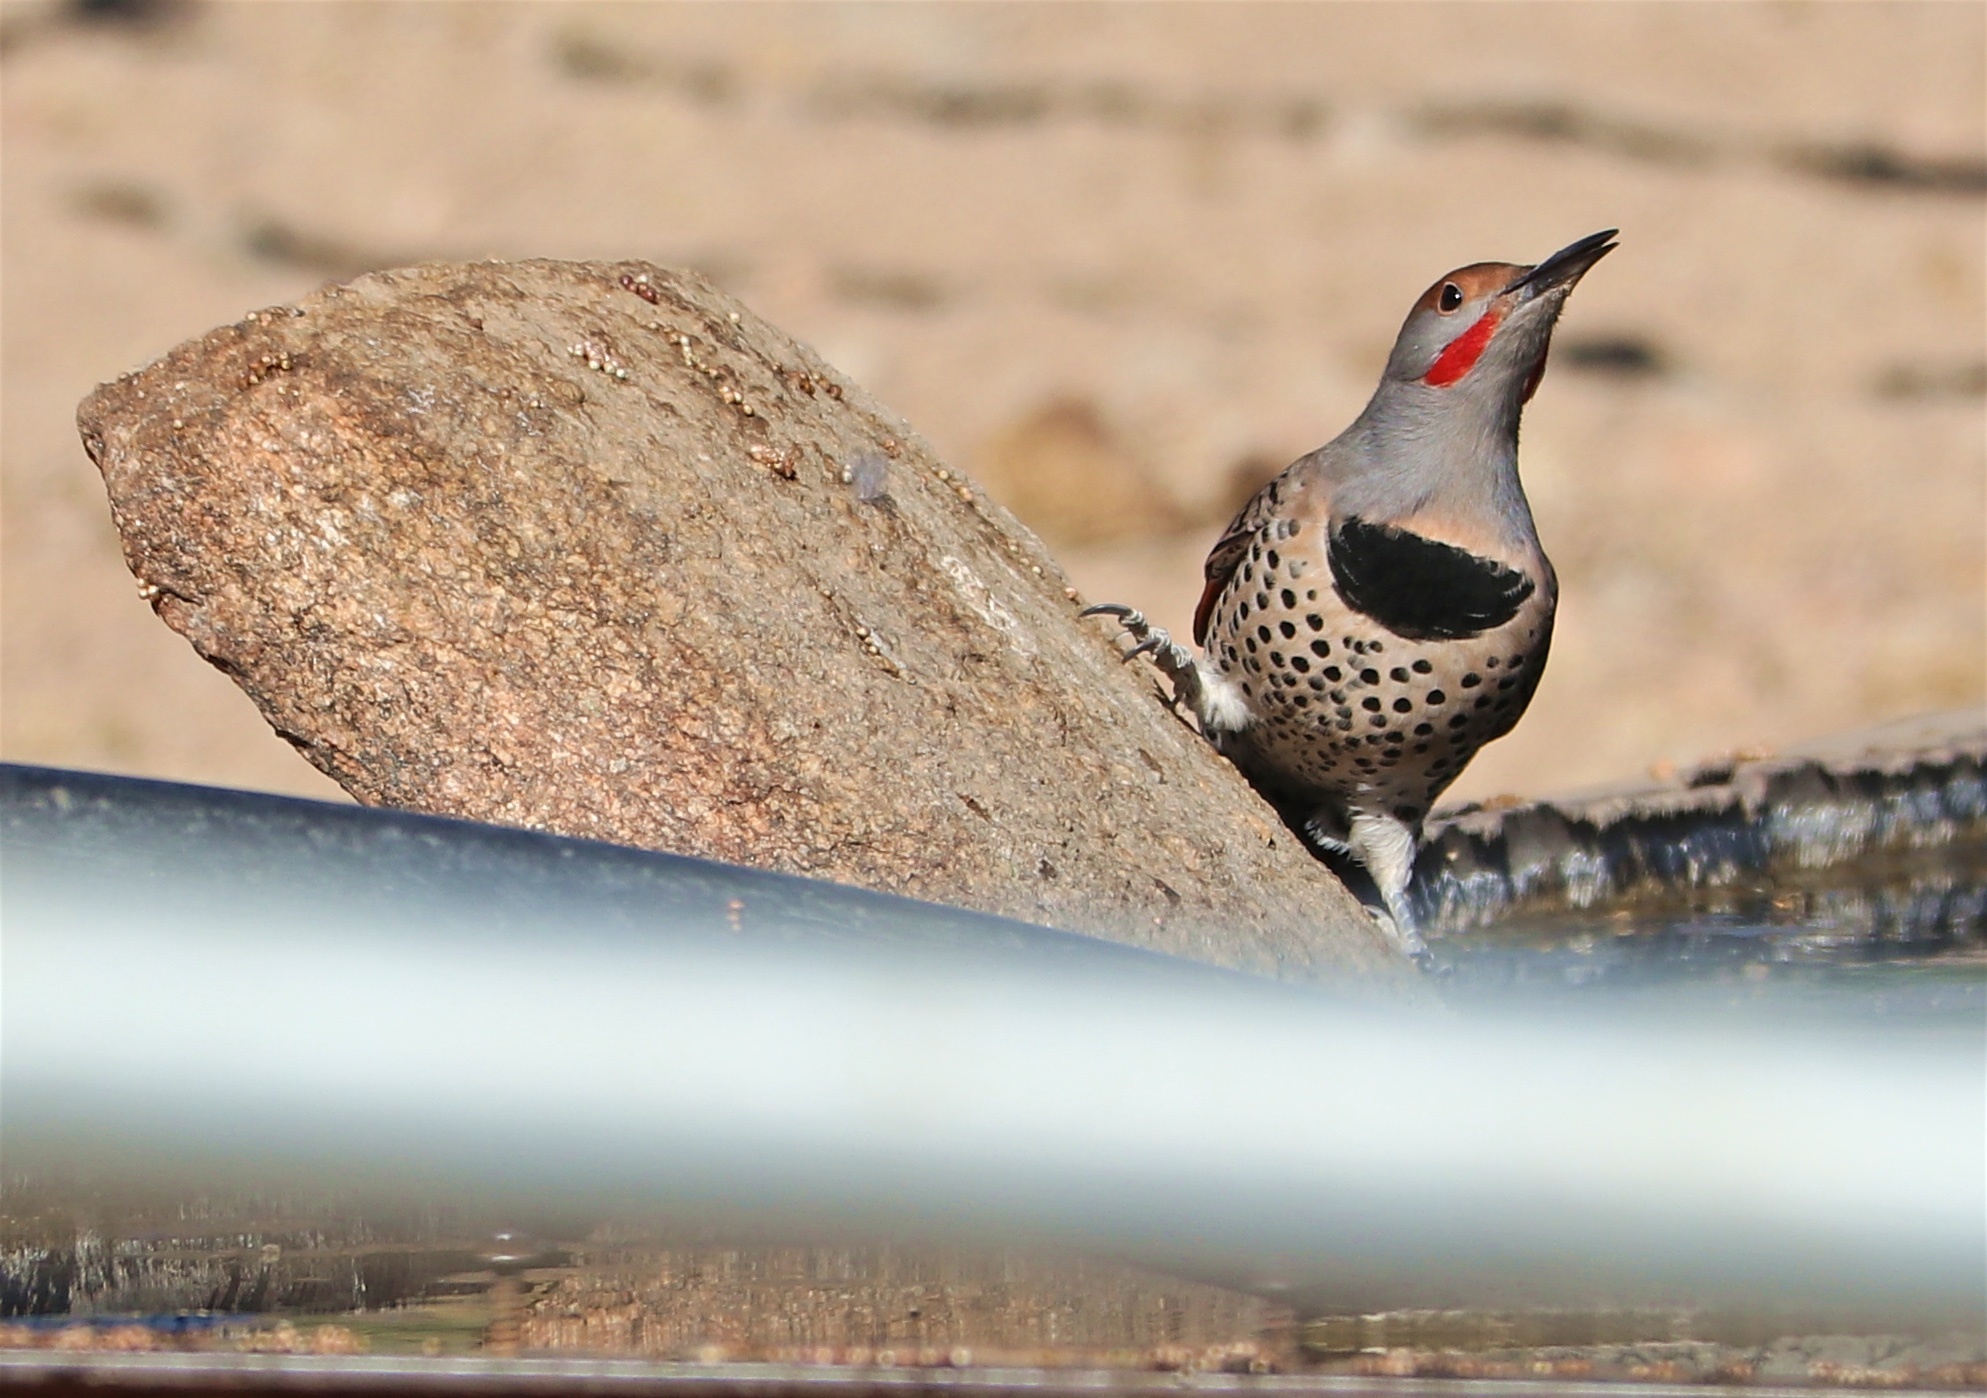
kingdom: Animalia
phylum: Chordata
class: Aves
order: Piciformes
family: Picidae
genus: Colaptes
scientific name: Colaptes auratus
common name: Northern flicker
